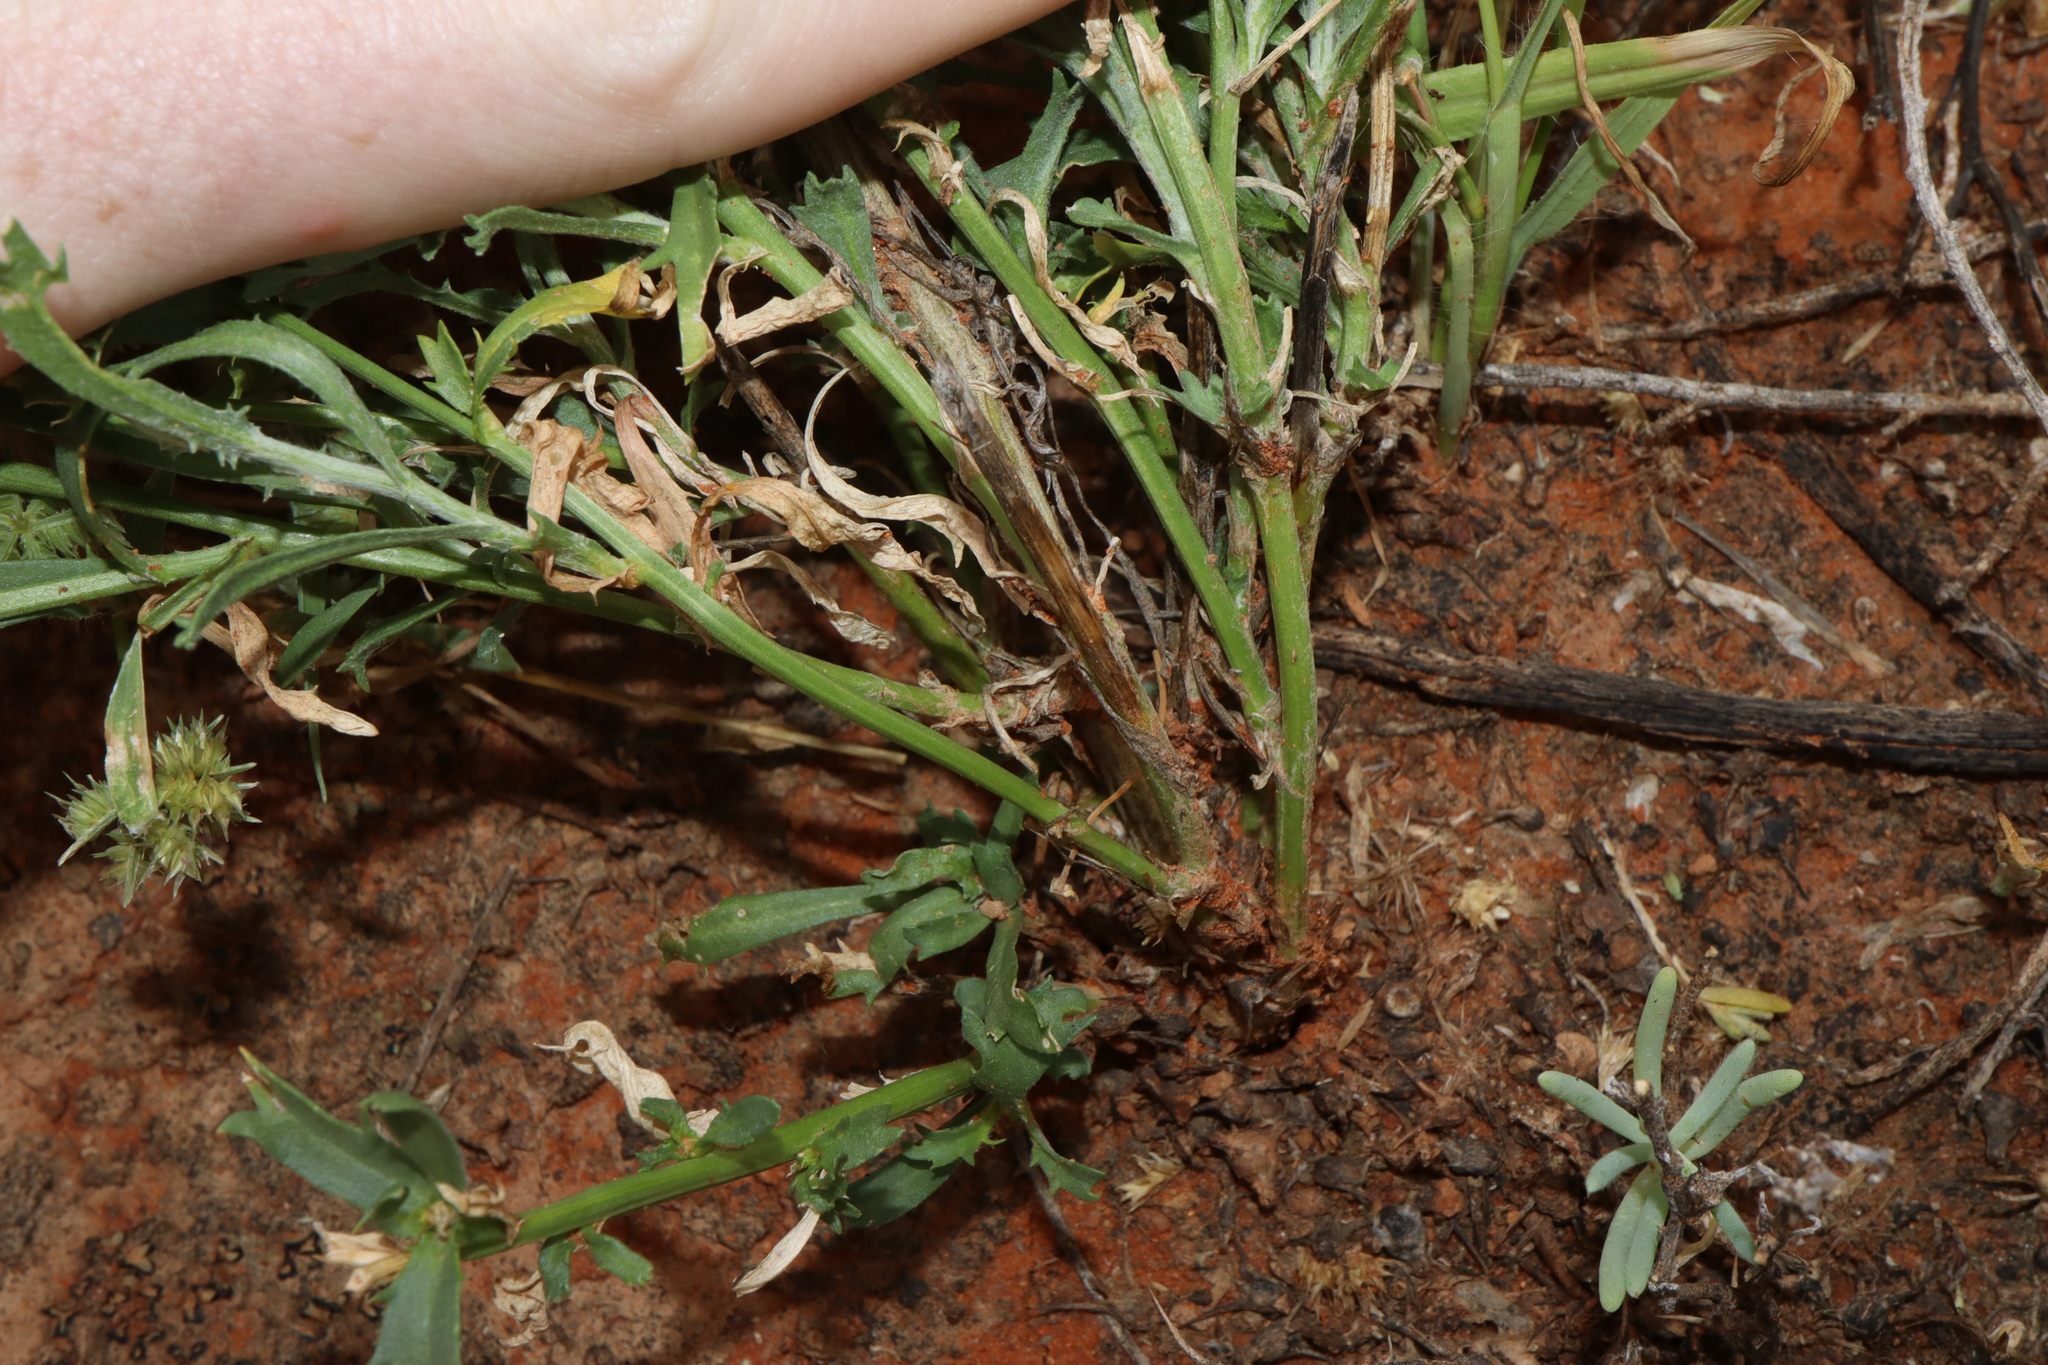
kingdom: Plantae
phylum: Tracheophyta
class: Magnoliopsida
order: Asterales
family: Asteraceae
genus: Vittadinia
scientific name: Vittadinia dentata
